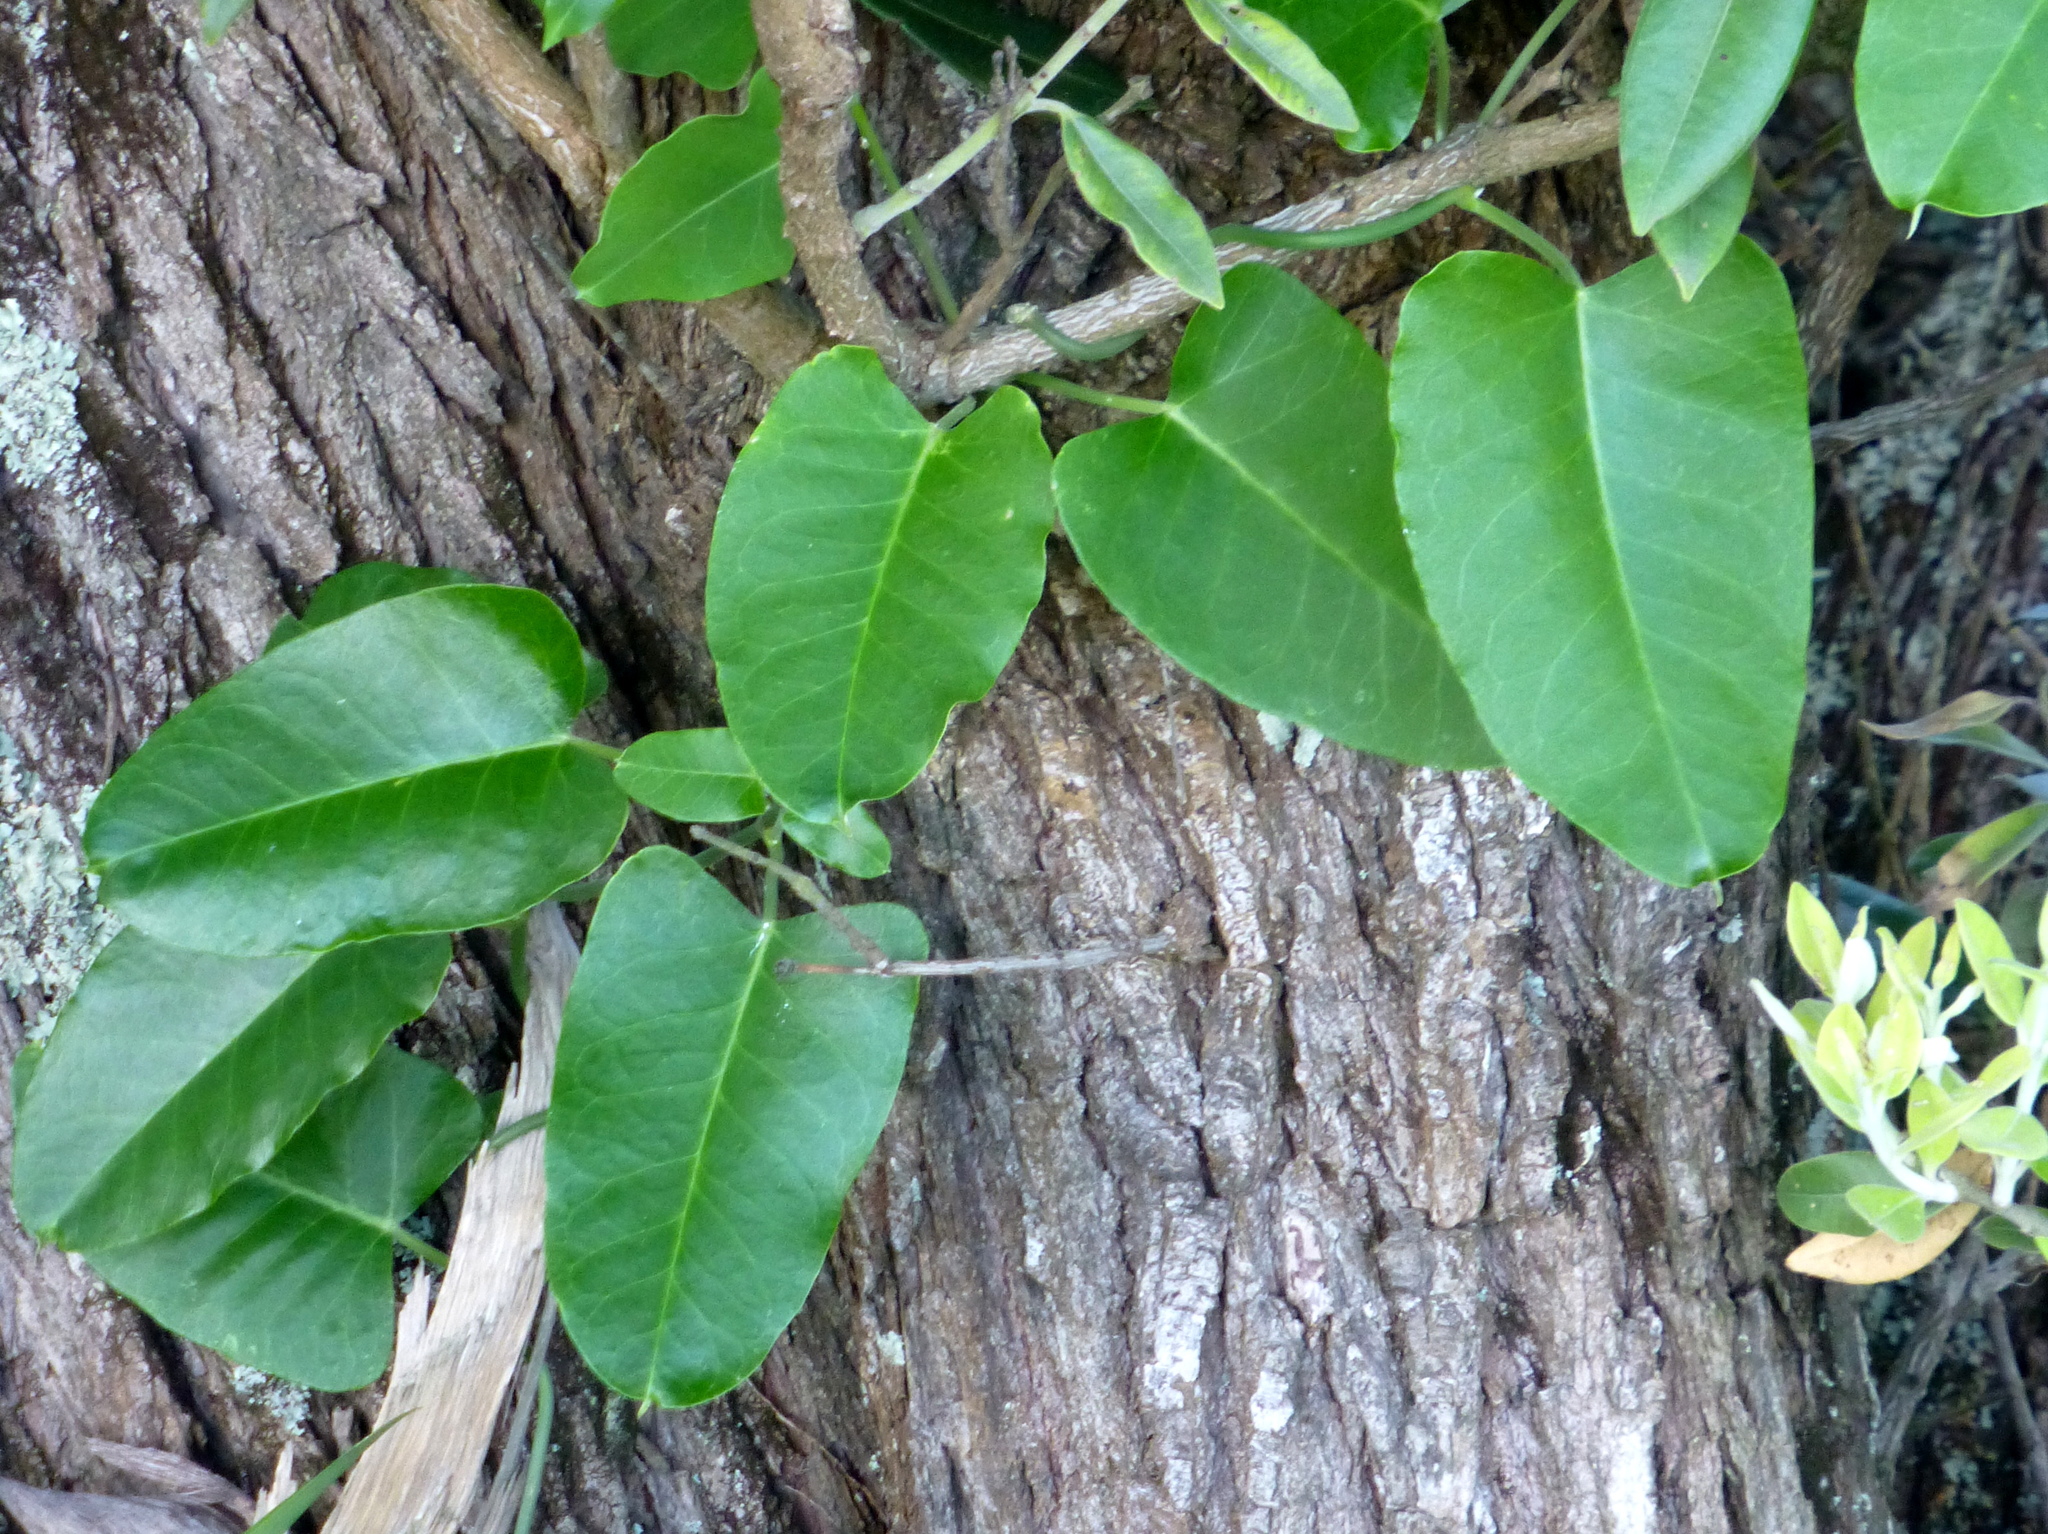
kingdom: Plantae
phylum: Tracheophyta
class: Magnoliopsida
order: Gentianales
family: Apocynaceae
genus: Araujia
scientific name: Araujia sericifera
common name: White bladderflower
